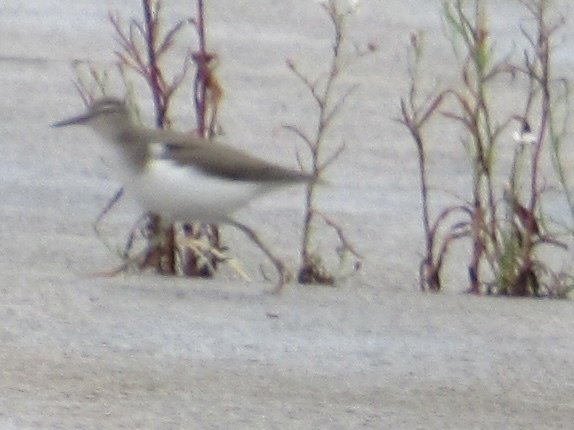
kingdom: Animalia
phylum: Chordata
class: Aves
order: Charadriiformes
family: Scolopacidae
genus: Actitis
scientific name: Actitis macularius
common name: Spotted sandpiper
